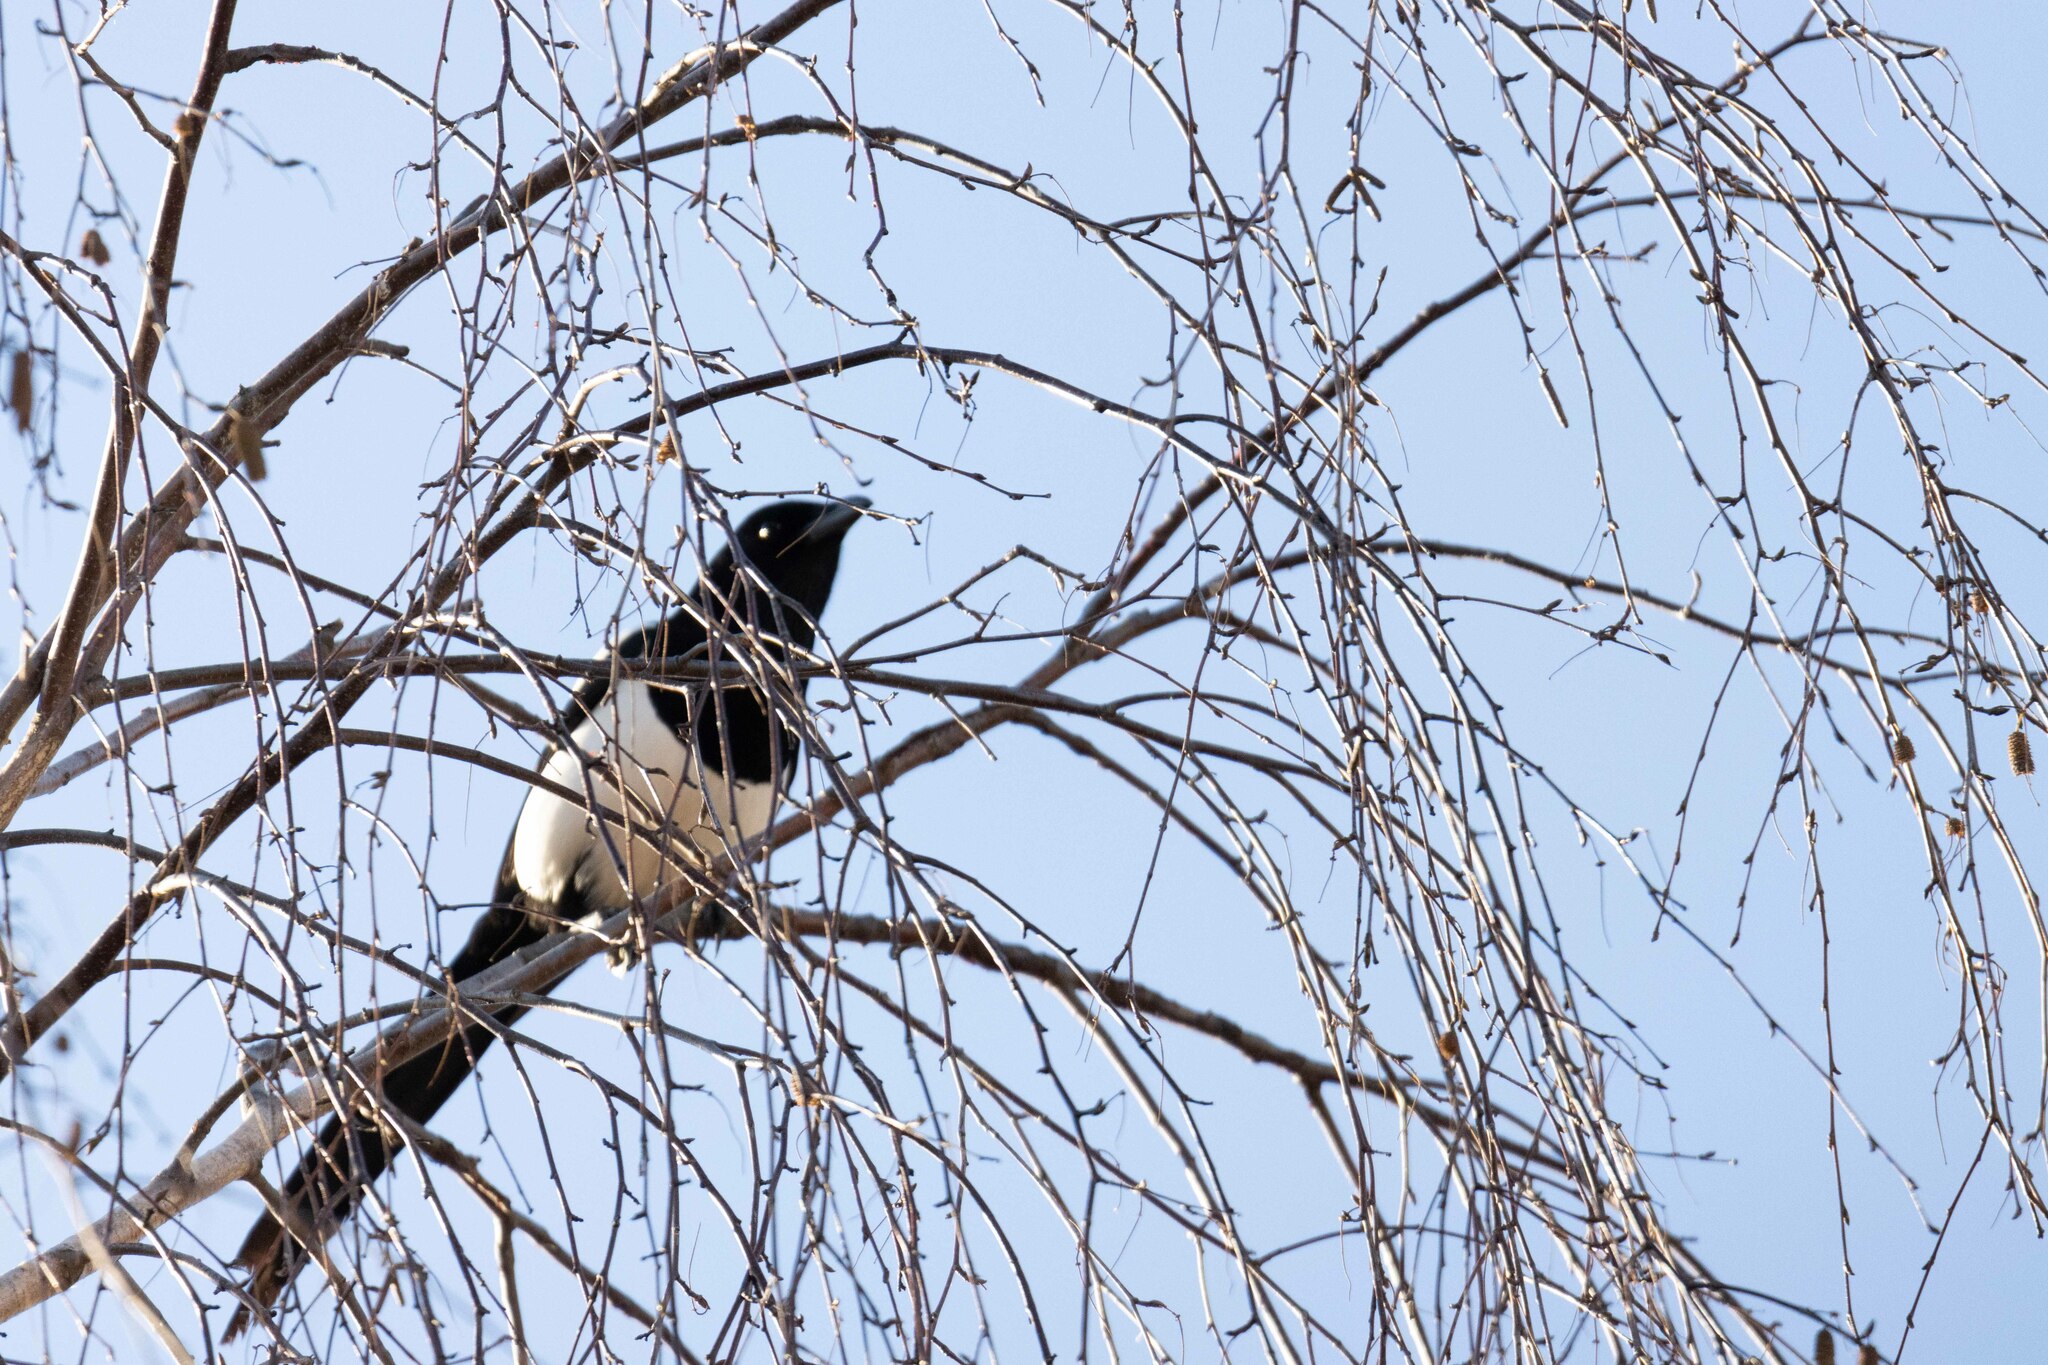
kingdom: Animalia
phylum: Chordata
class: Aves
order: Passeriformes
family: Corvidae
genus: Pica
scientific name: Pica pica
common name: Eurasian magpie
